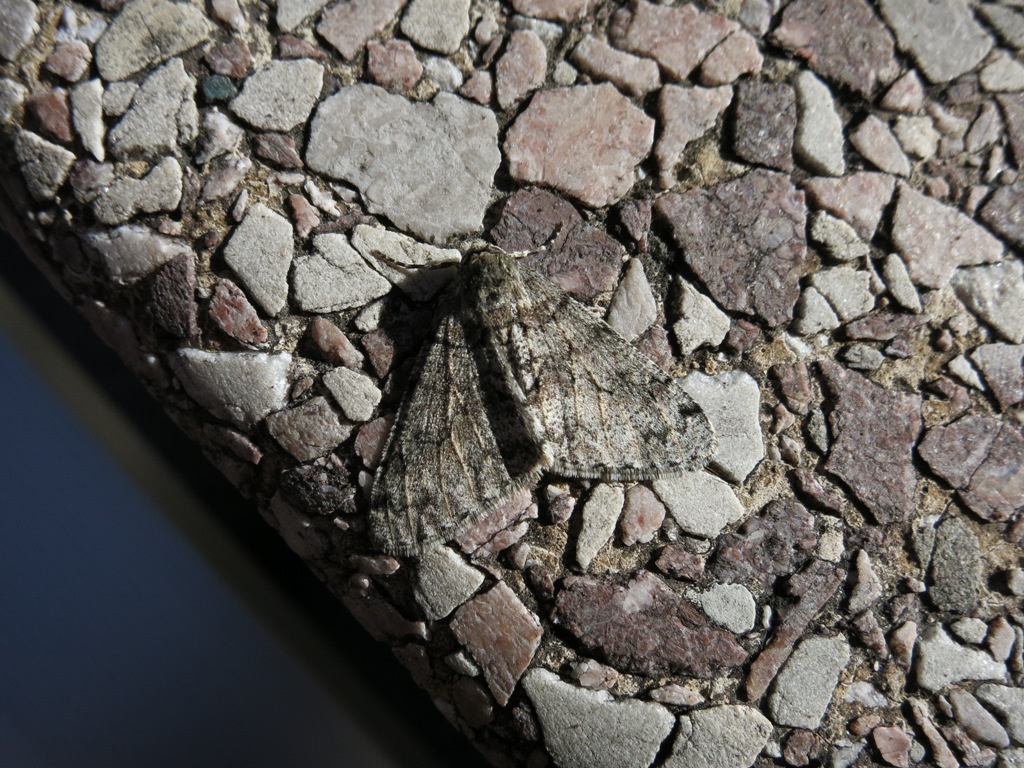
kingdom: Animalia
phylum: Arthropoda
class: Insecta
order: Lepidoptera
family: Geometridae
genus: Phigalia
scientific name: Phigalia denticulata
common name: Toothed phigalia
